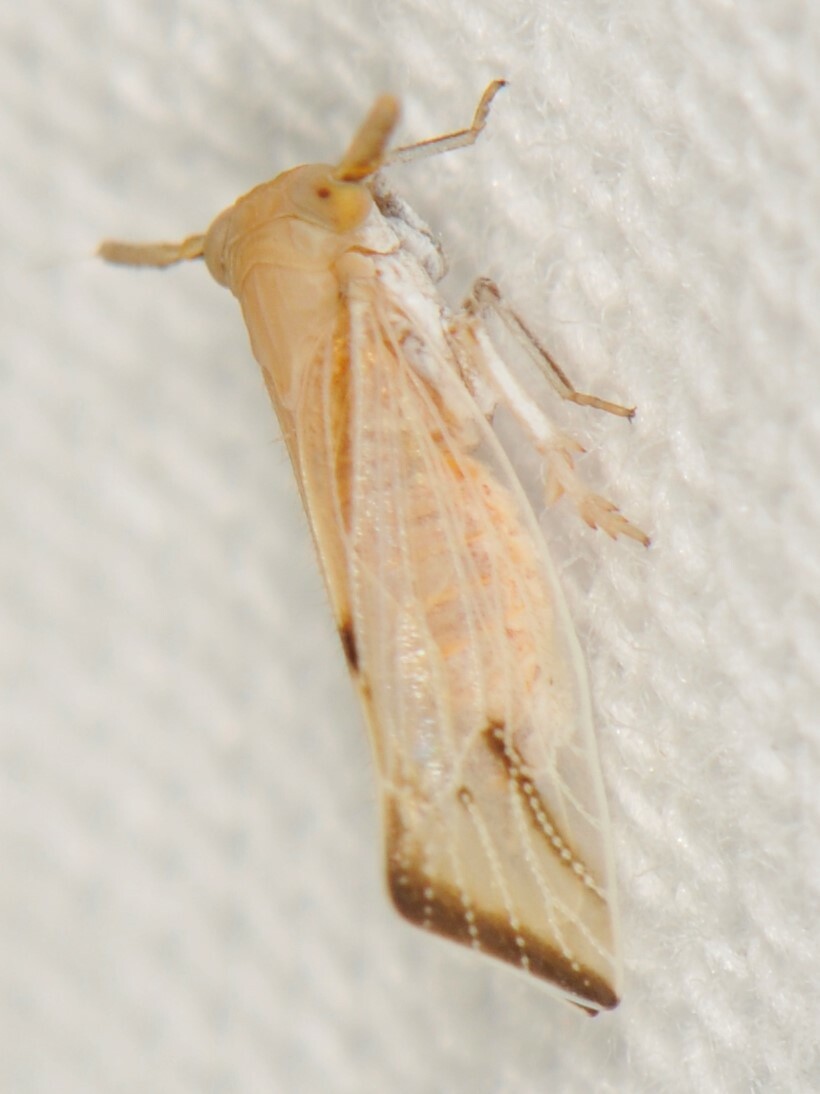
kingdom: Animalia
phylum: Arthropoda
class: Insecta
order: Hemiptera
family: Delphacidae
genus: Bostaera
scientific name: Bostaera nasuta
